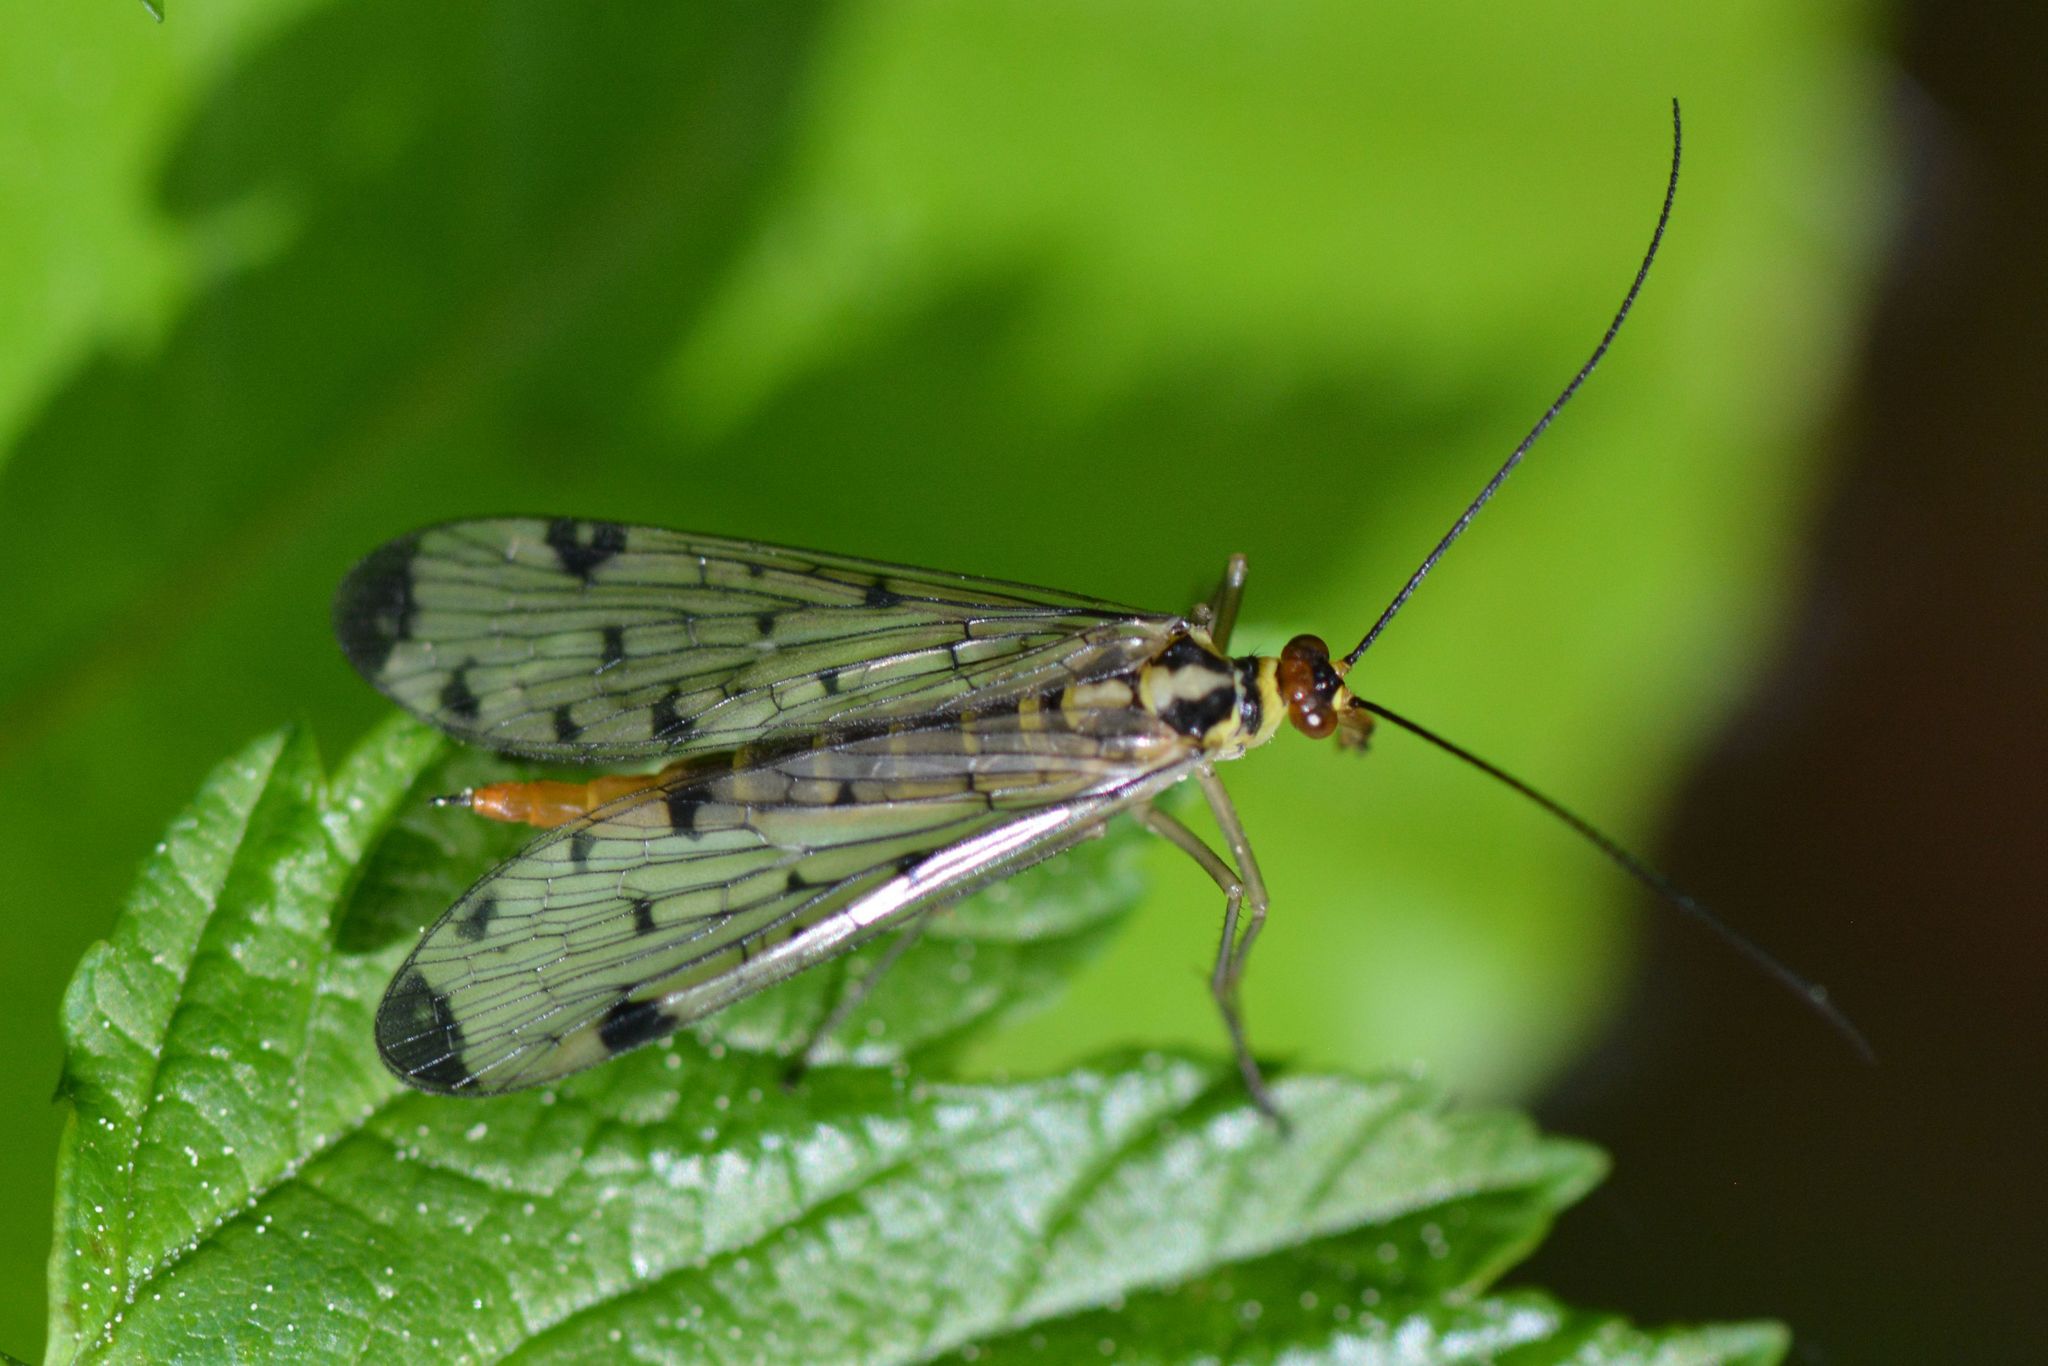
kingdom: Animalia
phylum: Arthropoda
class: Insecta
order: Mecoptera
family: Panorpidae
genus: Panorpa
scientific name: Panorpa germanica
